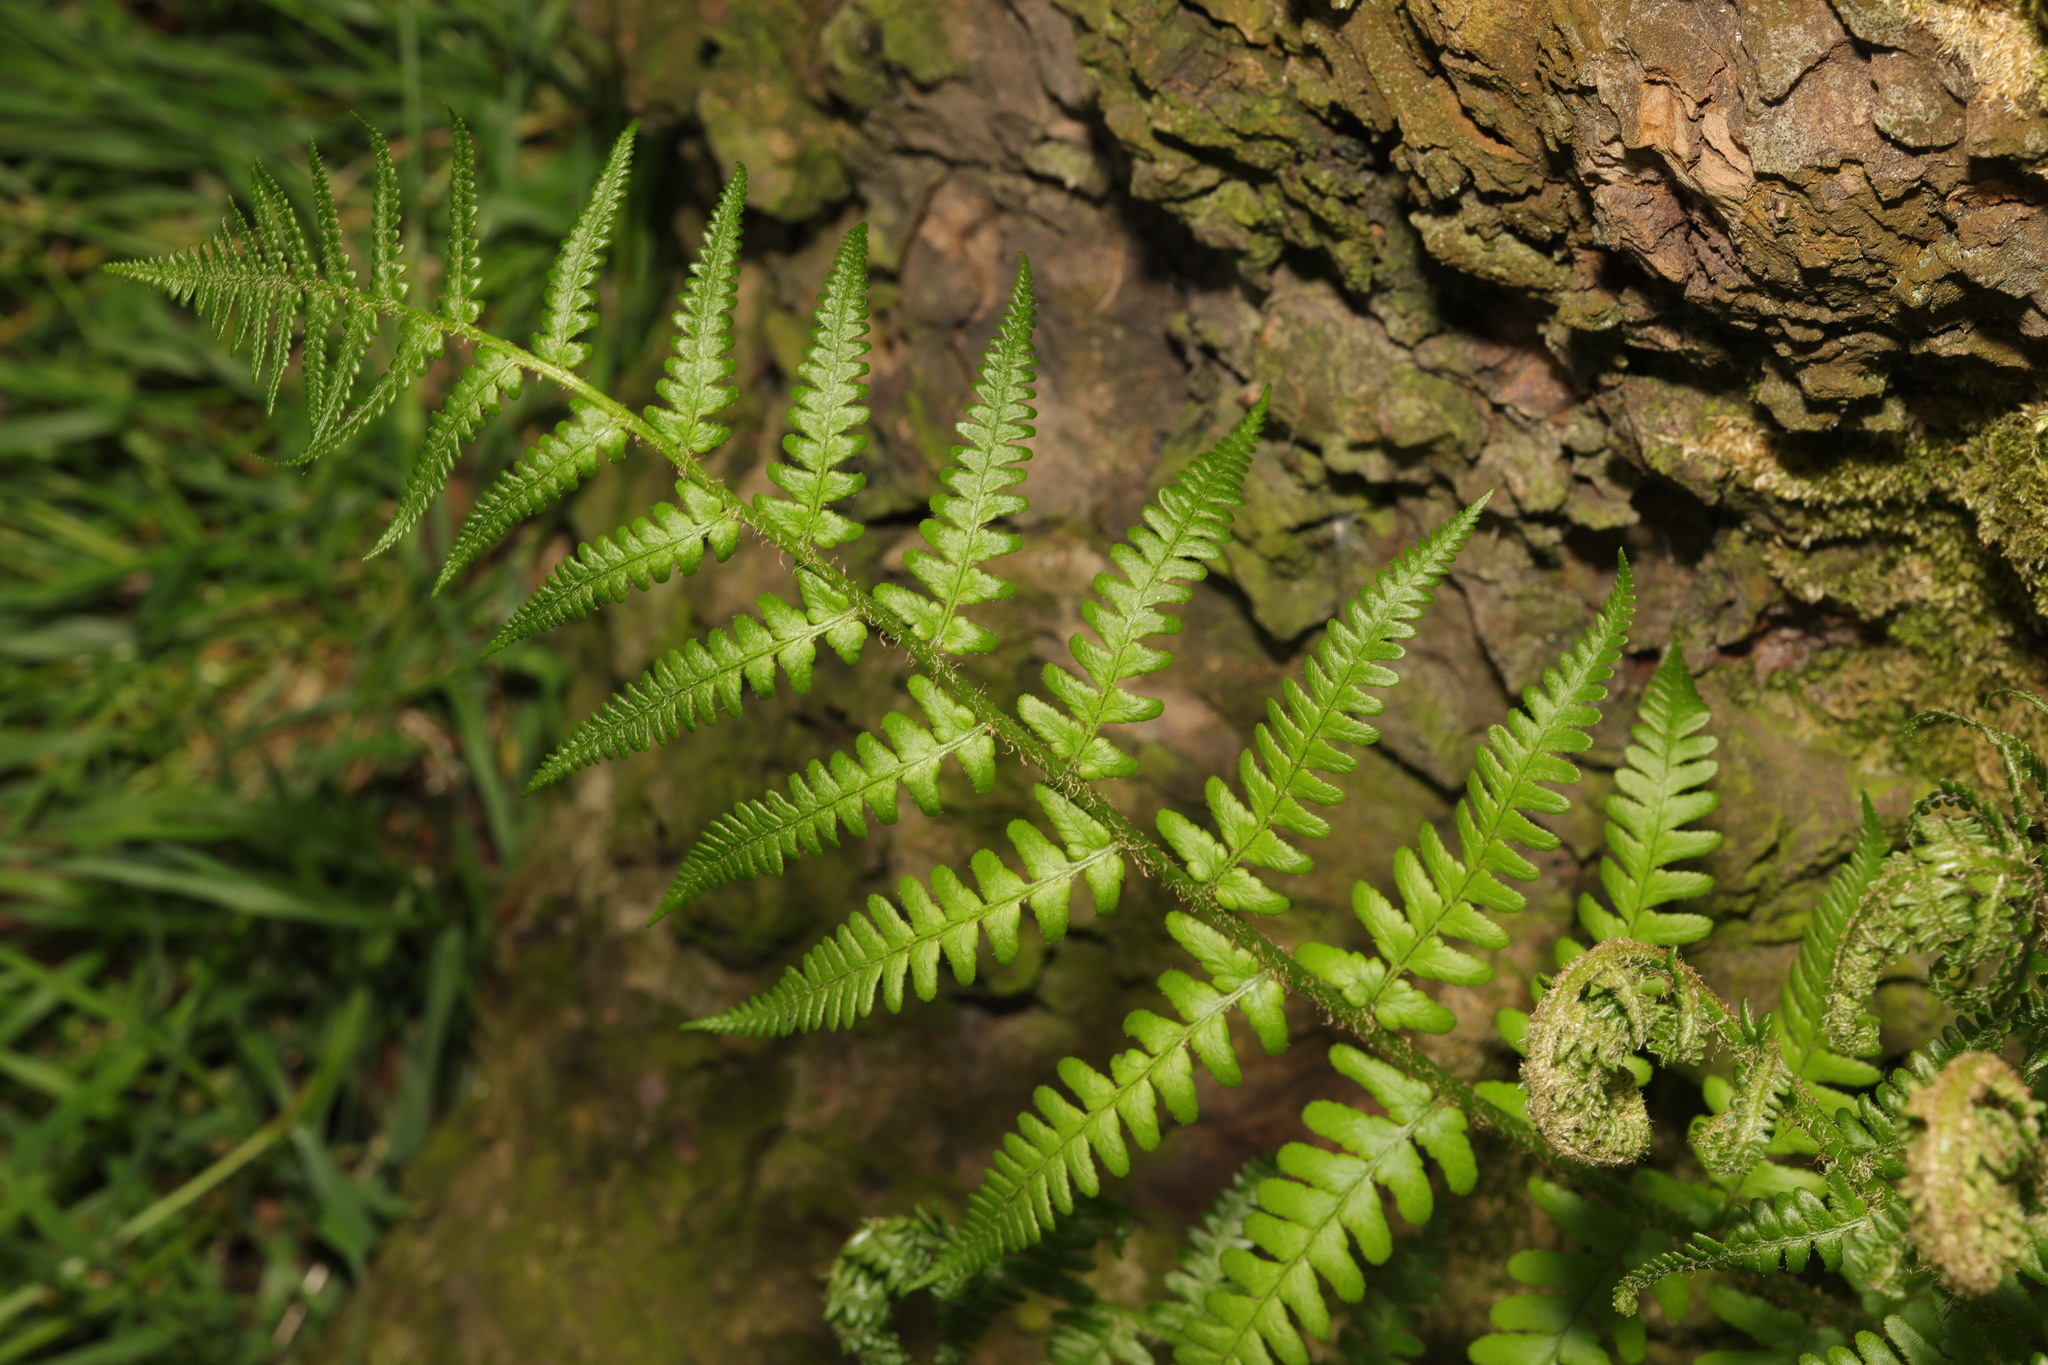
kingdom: Plantae
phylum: Tracheophyta
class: Polypodiopsida
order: Polypodiales
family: Dryopteridaceae
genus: Dryopteris
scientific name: Dryopteris filix-mas
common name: Male fern
